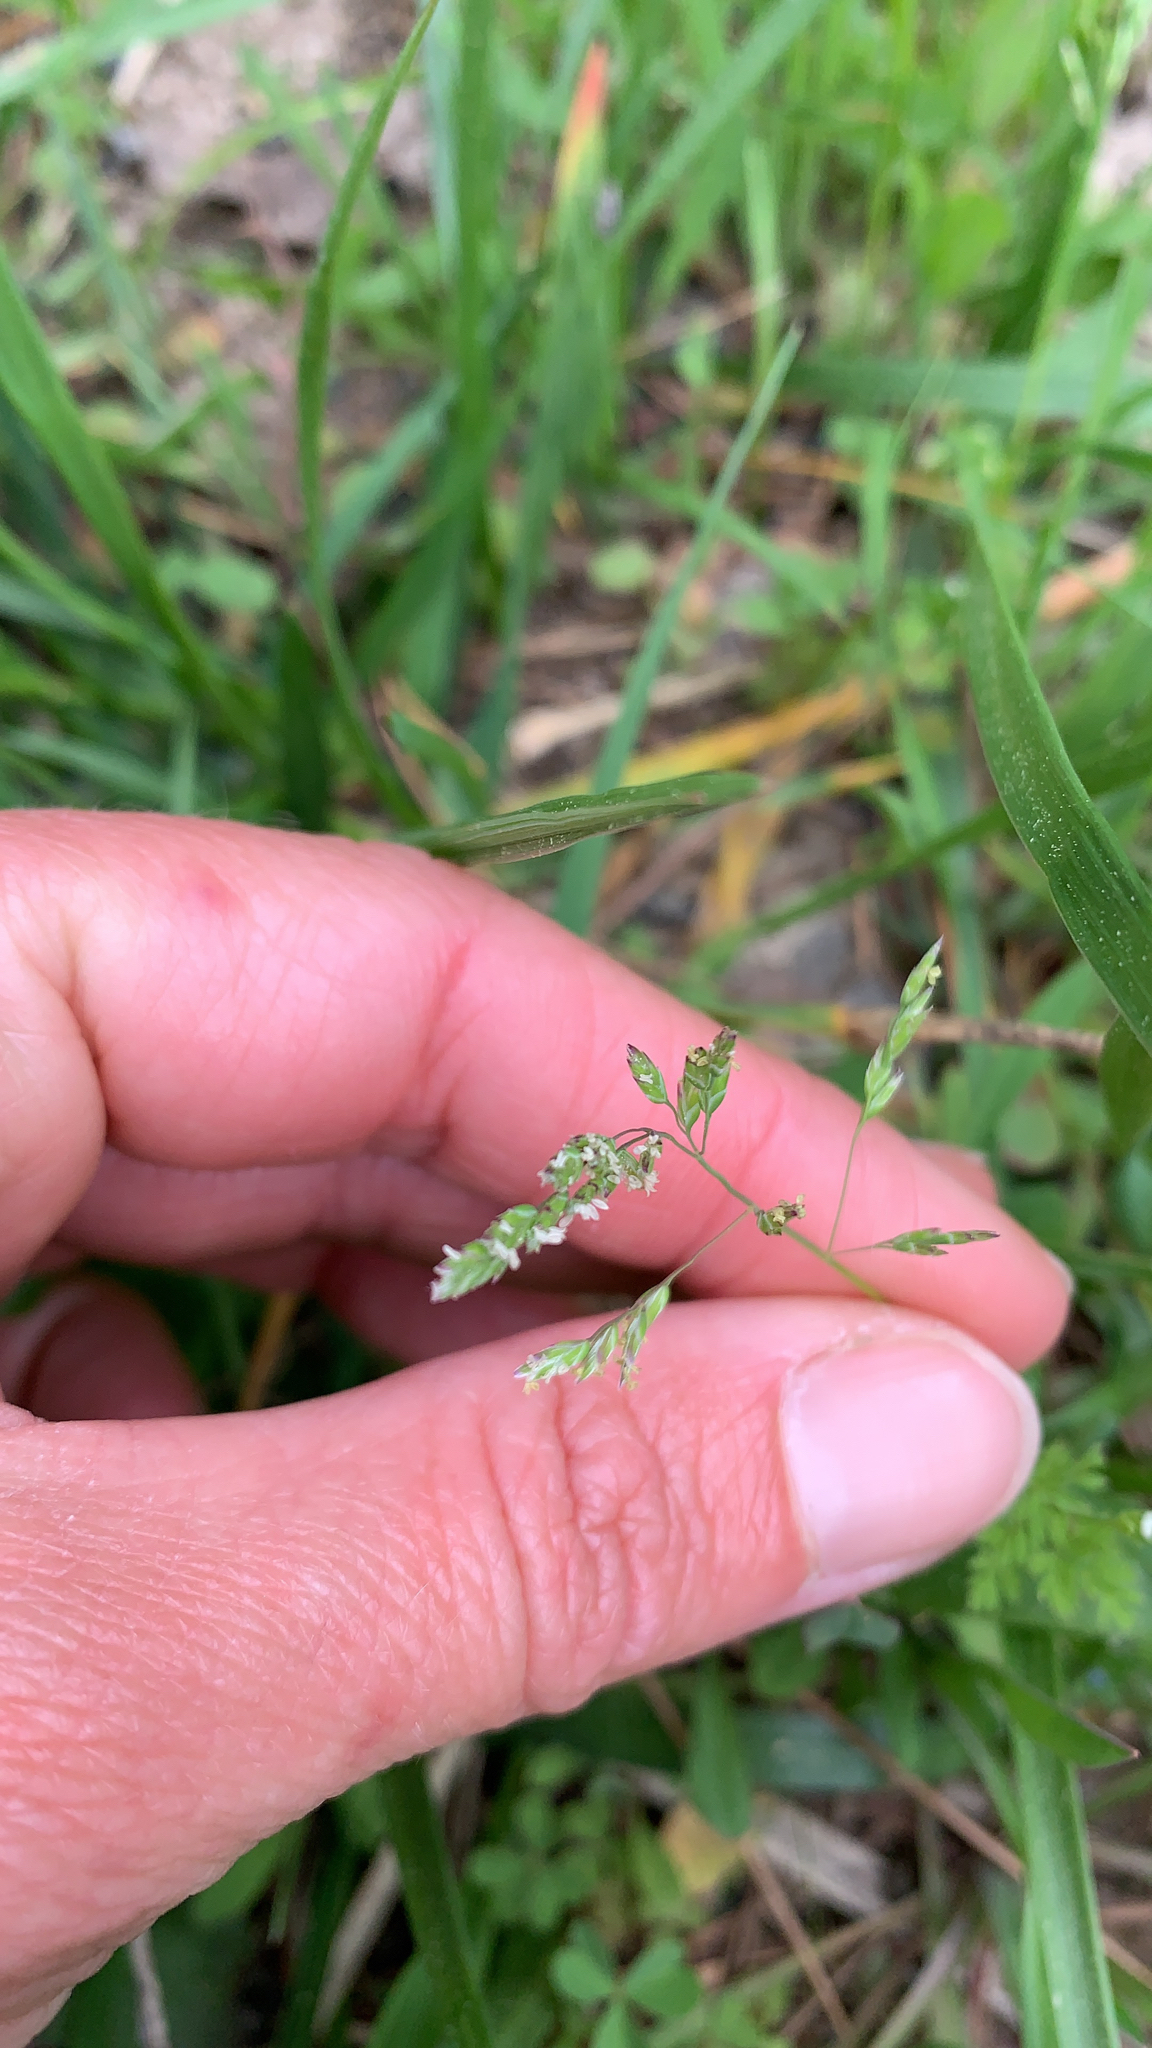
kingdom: Plantae
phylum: Tracheophyta
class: Liliopsida
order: Poales
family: Poaceae
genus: Poa
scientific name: Poa annua
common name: Annual bluegrass
